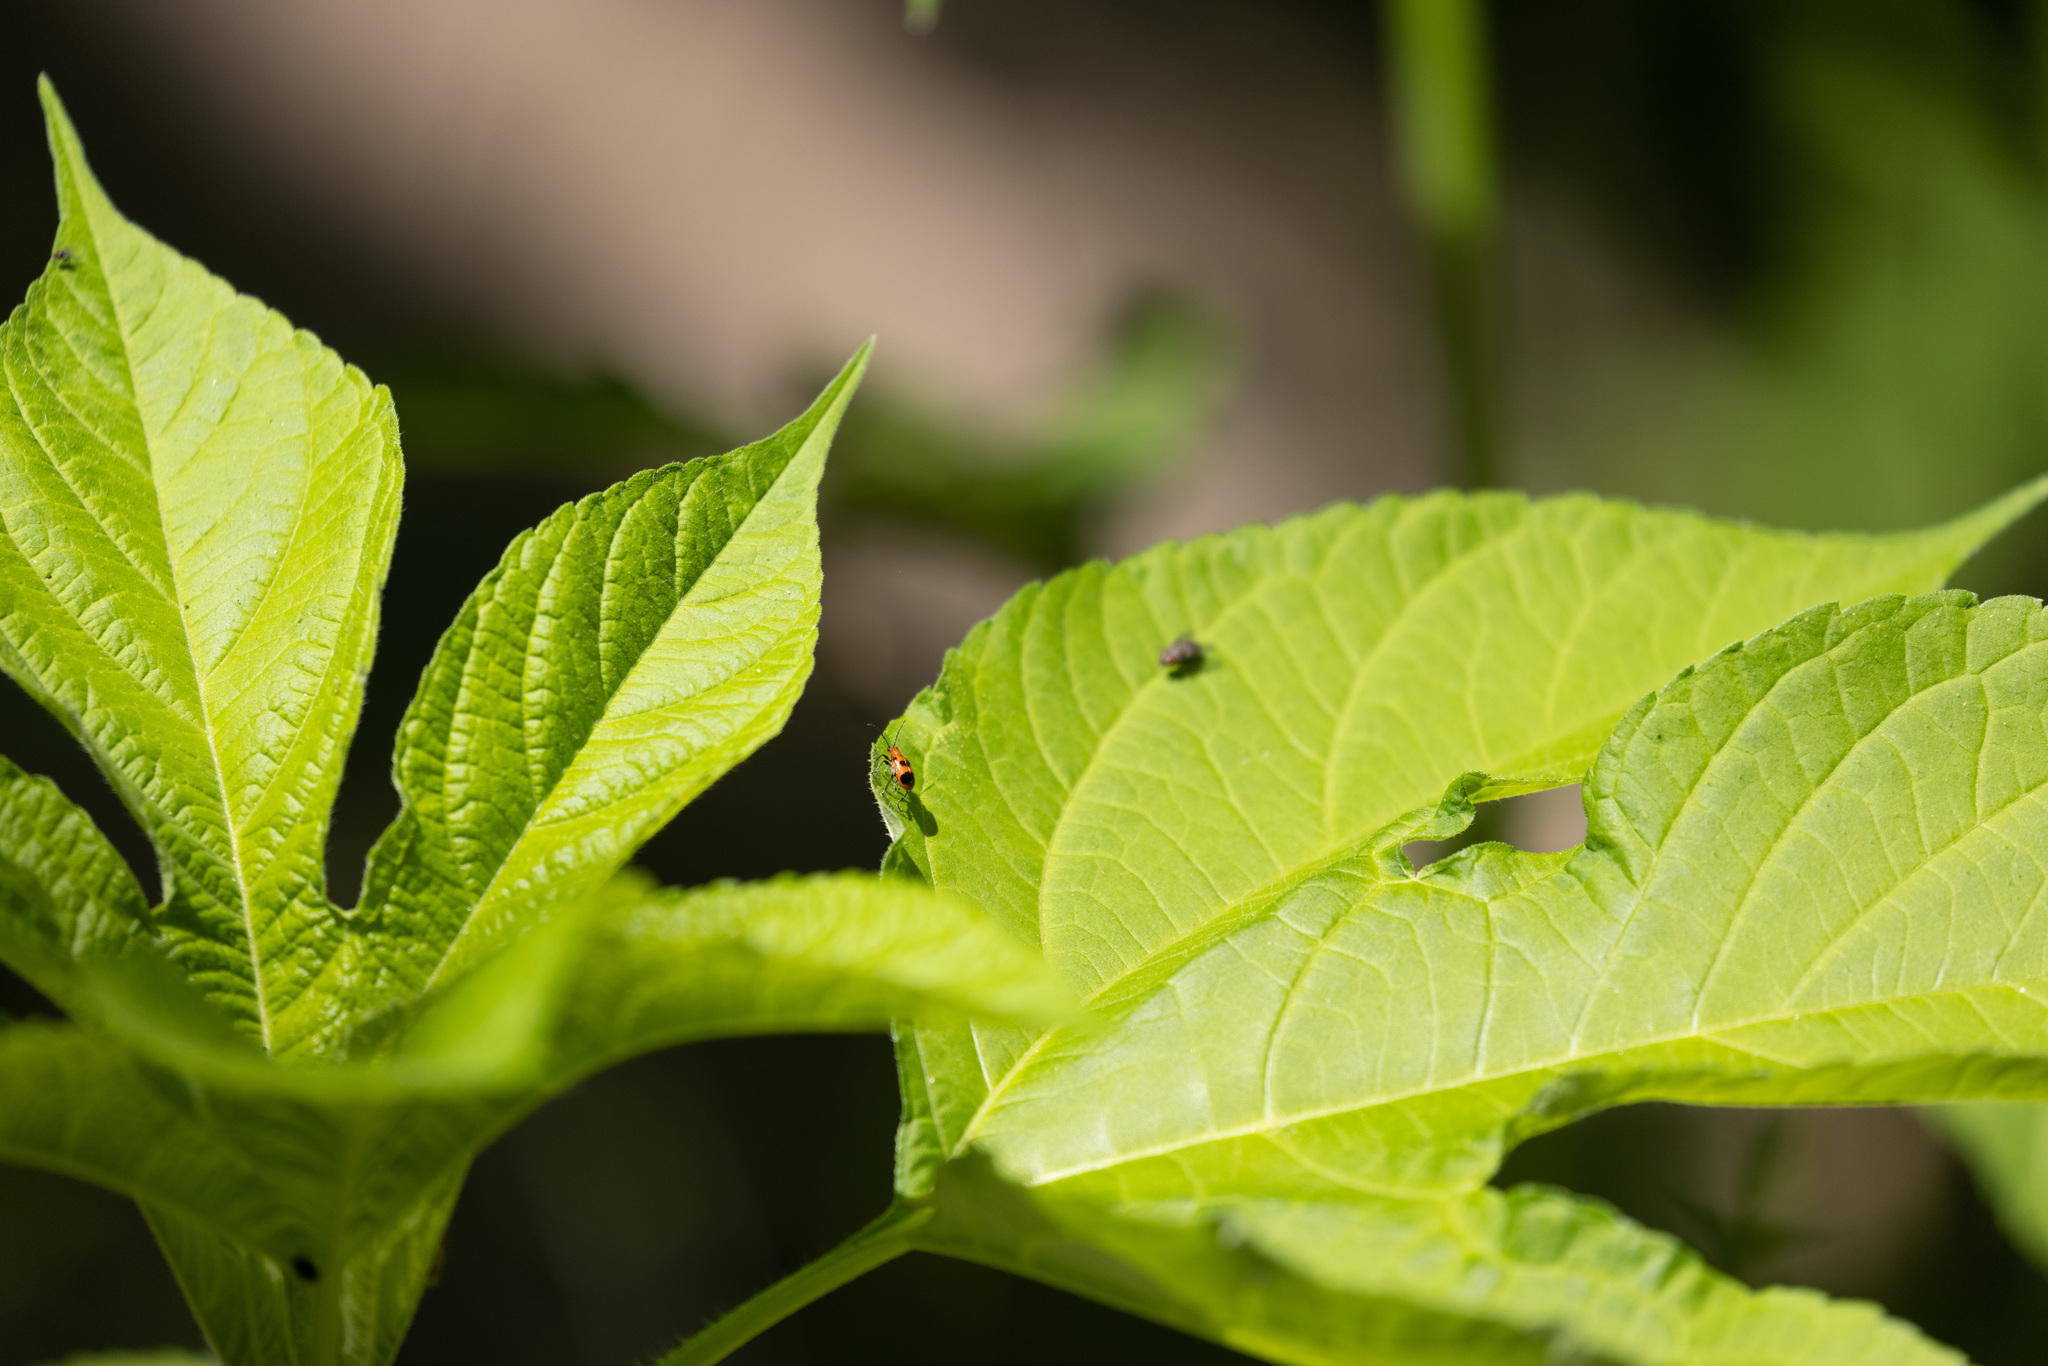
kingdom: Animalia
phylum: Arthropoda
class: Insecta
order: Coleoptera
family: Chrysomelidae
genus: Neolema
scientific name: Neolema sexpunctata
